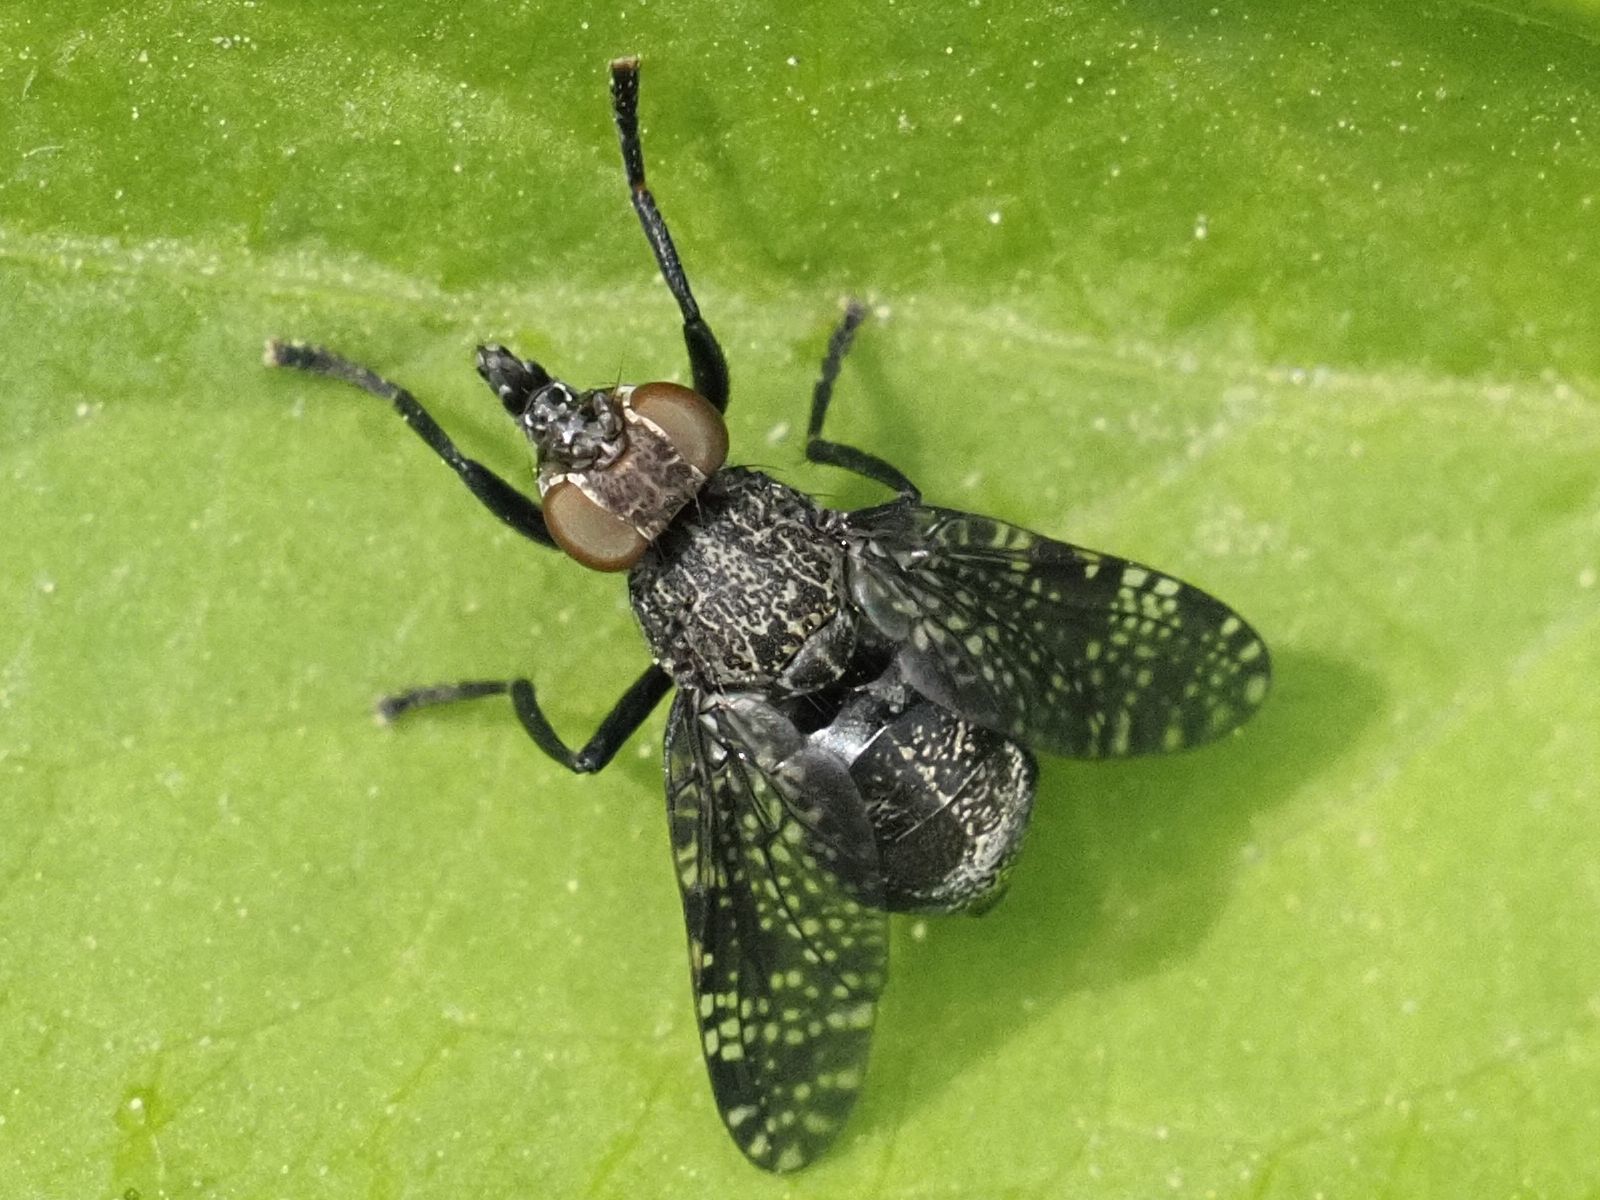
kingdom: Animalia
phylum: Arthropoda
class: Insecta
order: Diptera
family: Platystomatidae
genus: Platystoma
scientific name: Platystoma seminationis
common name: Fly
